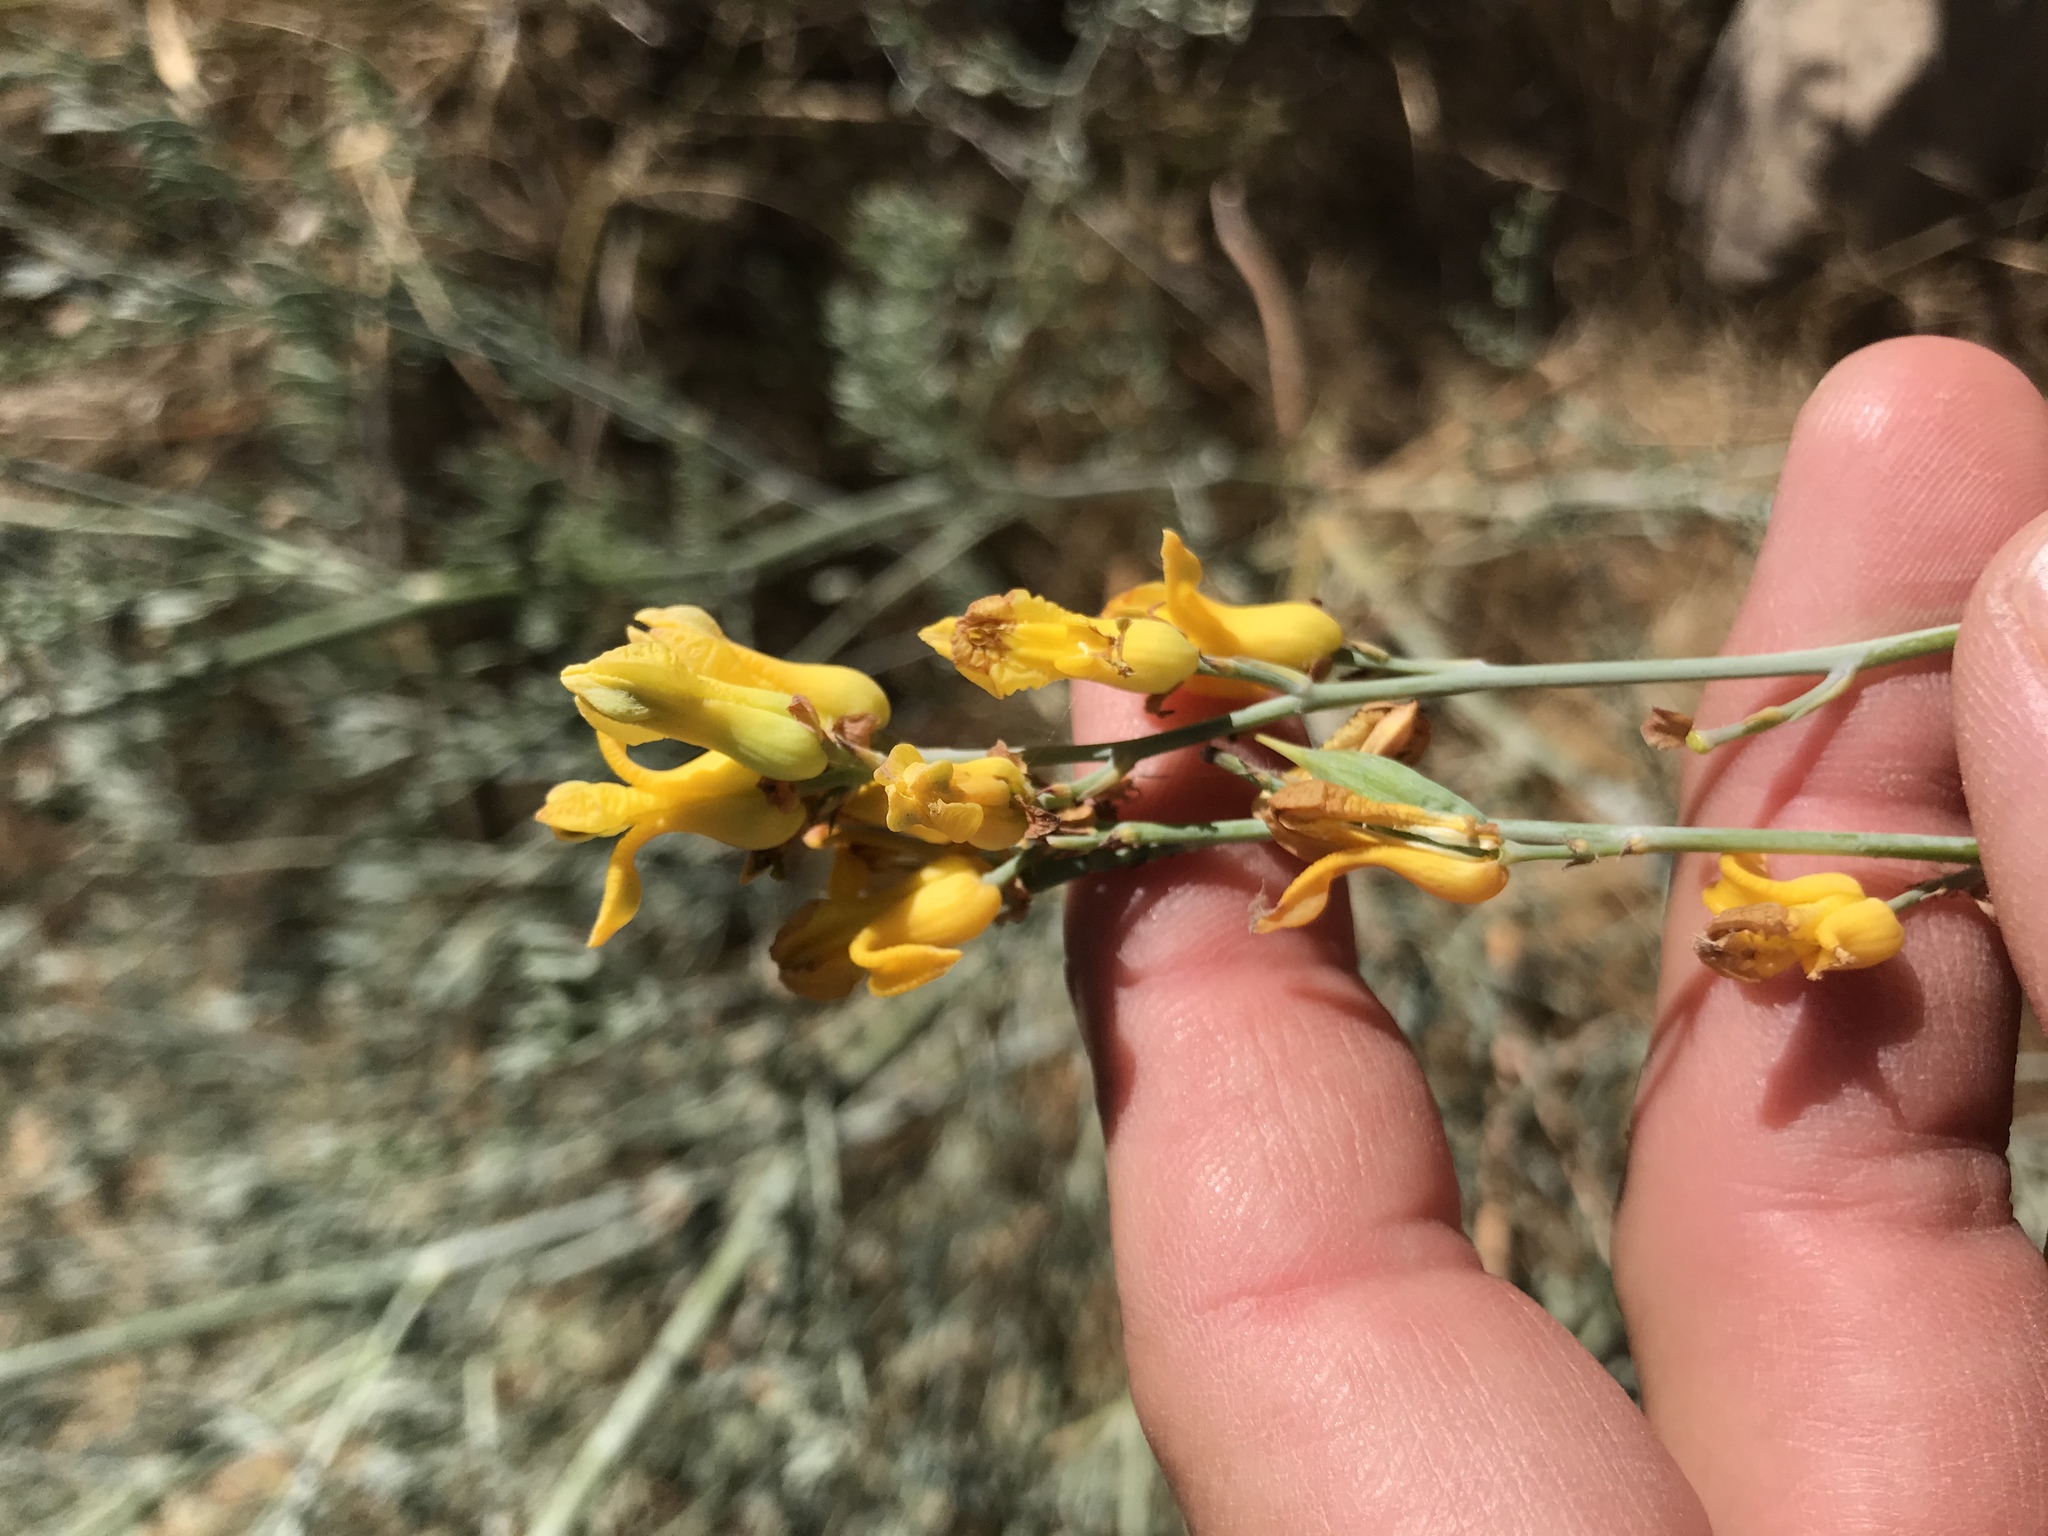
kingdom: Plantae
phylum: Tracheophyta
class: Magnoliopsida
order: Ranunculales
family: Papaveraceae
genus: Ehrendorferia
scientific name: Ehrendorferia chrysantha
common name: Golden eardrops
